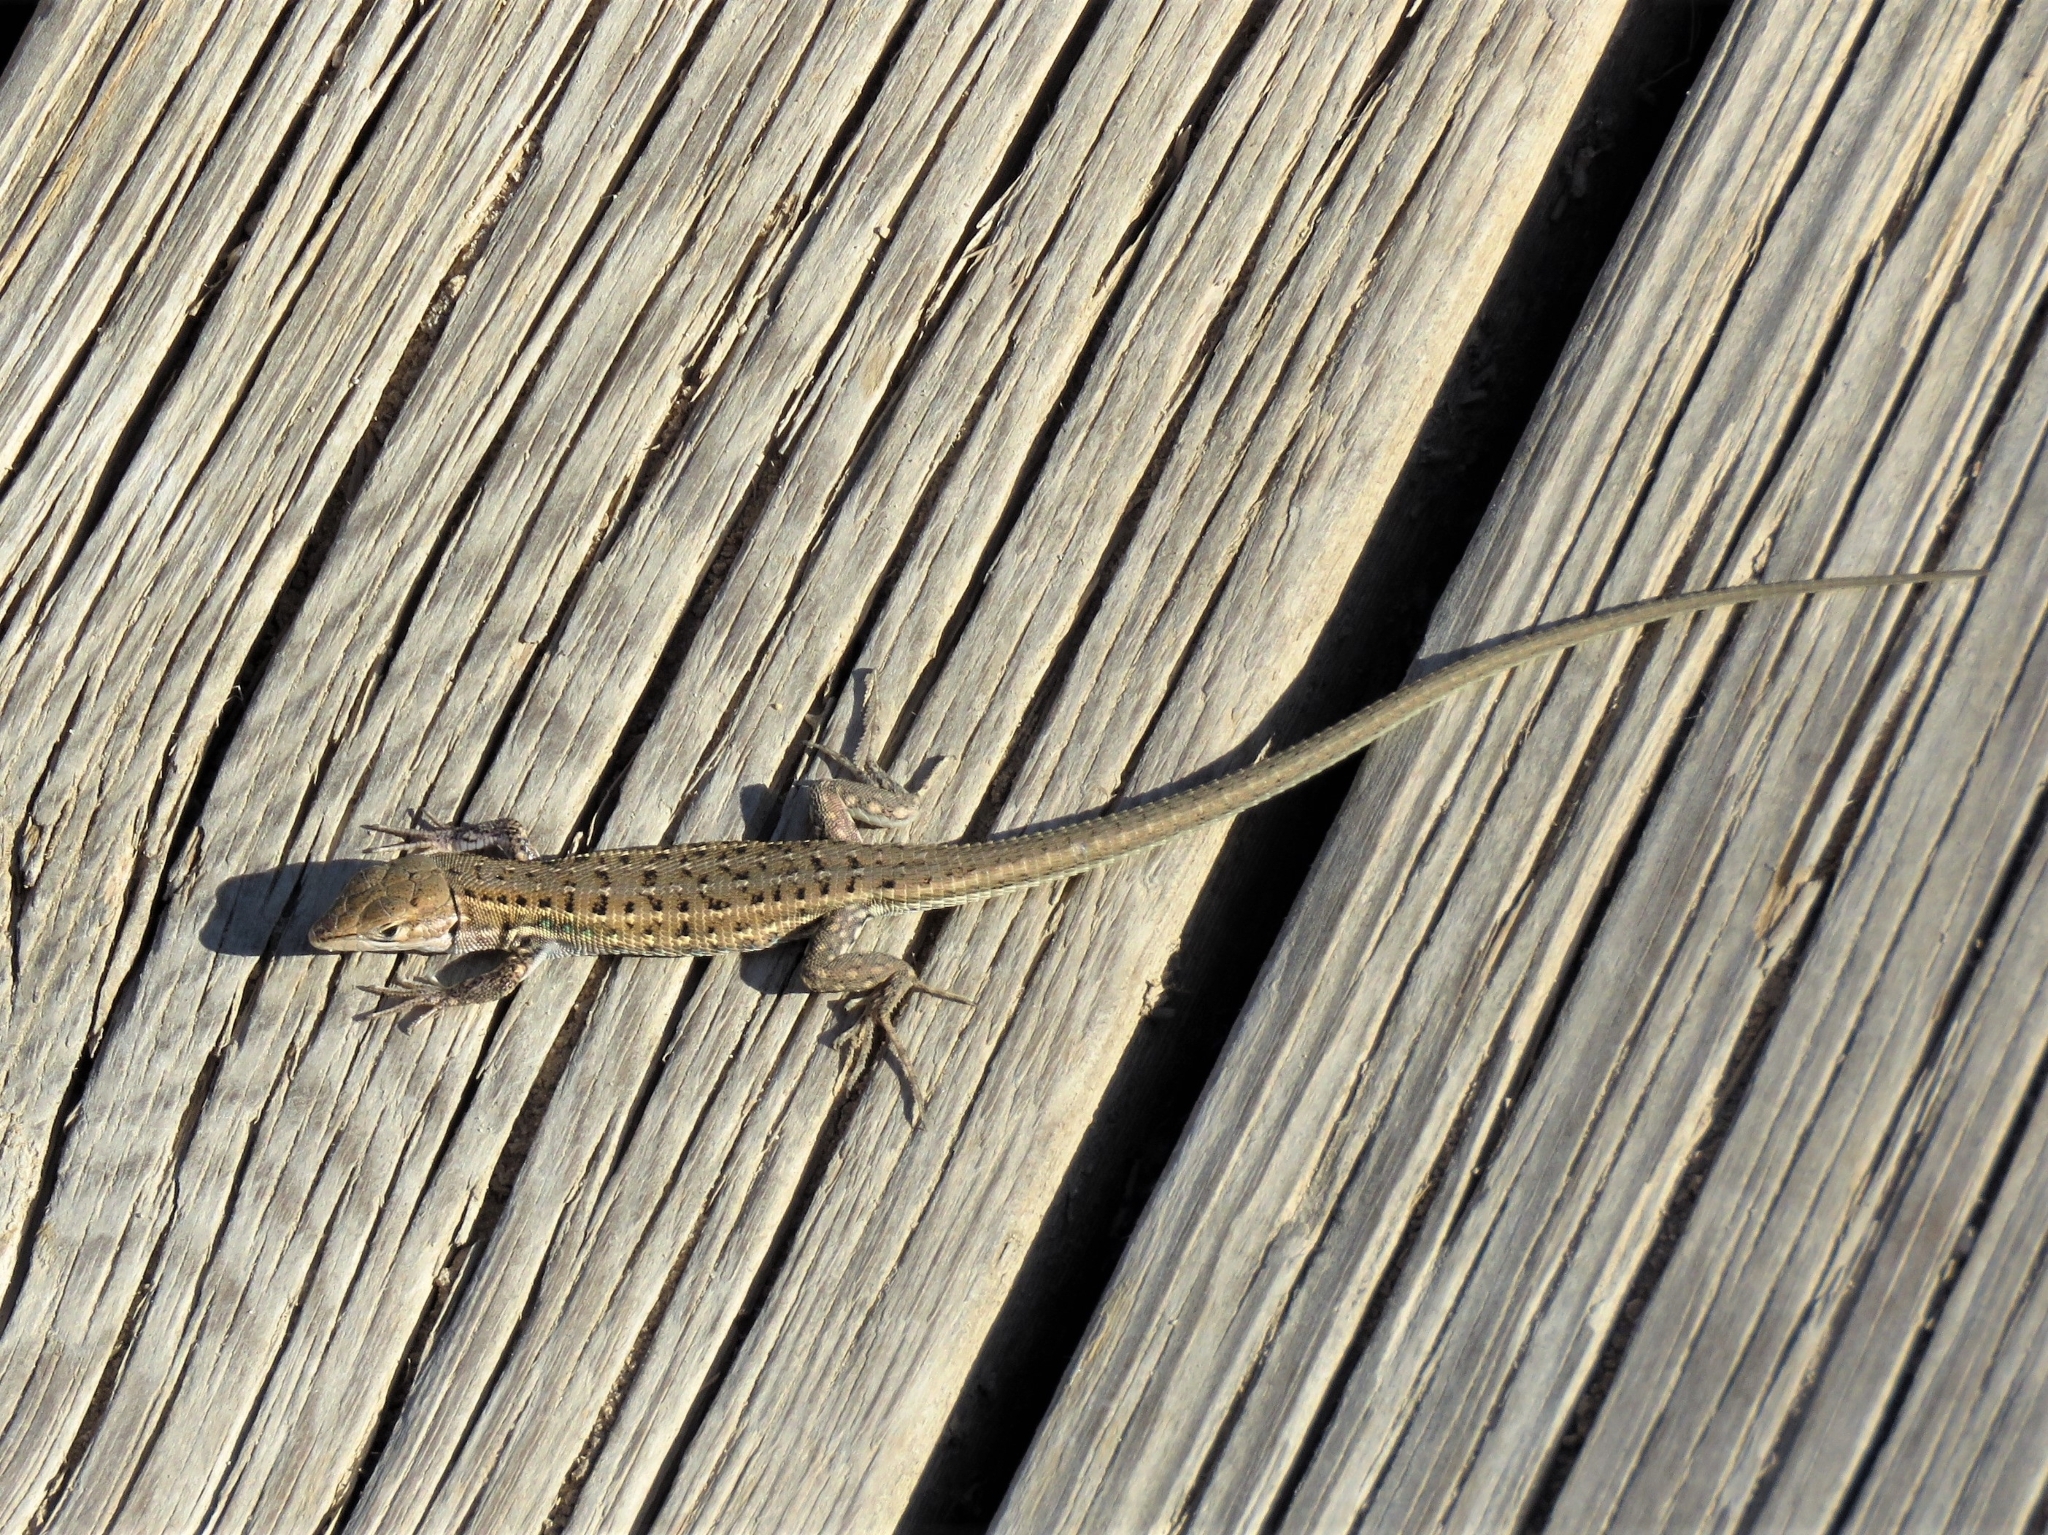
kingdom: Animalia
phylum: Chordata
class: Squamata
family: Lacertidae
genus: Psammodromus
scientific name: Psammodromus edwarsianus
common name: East iberian psammodromus
